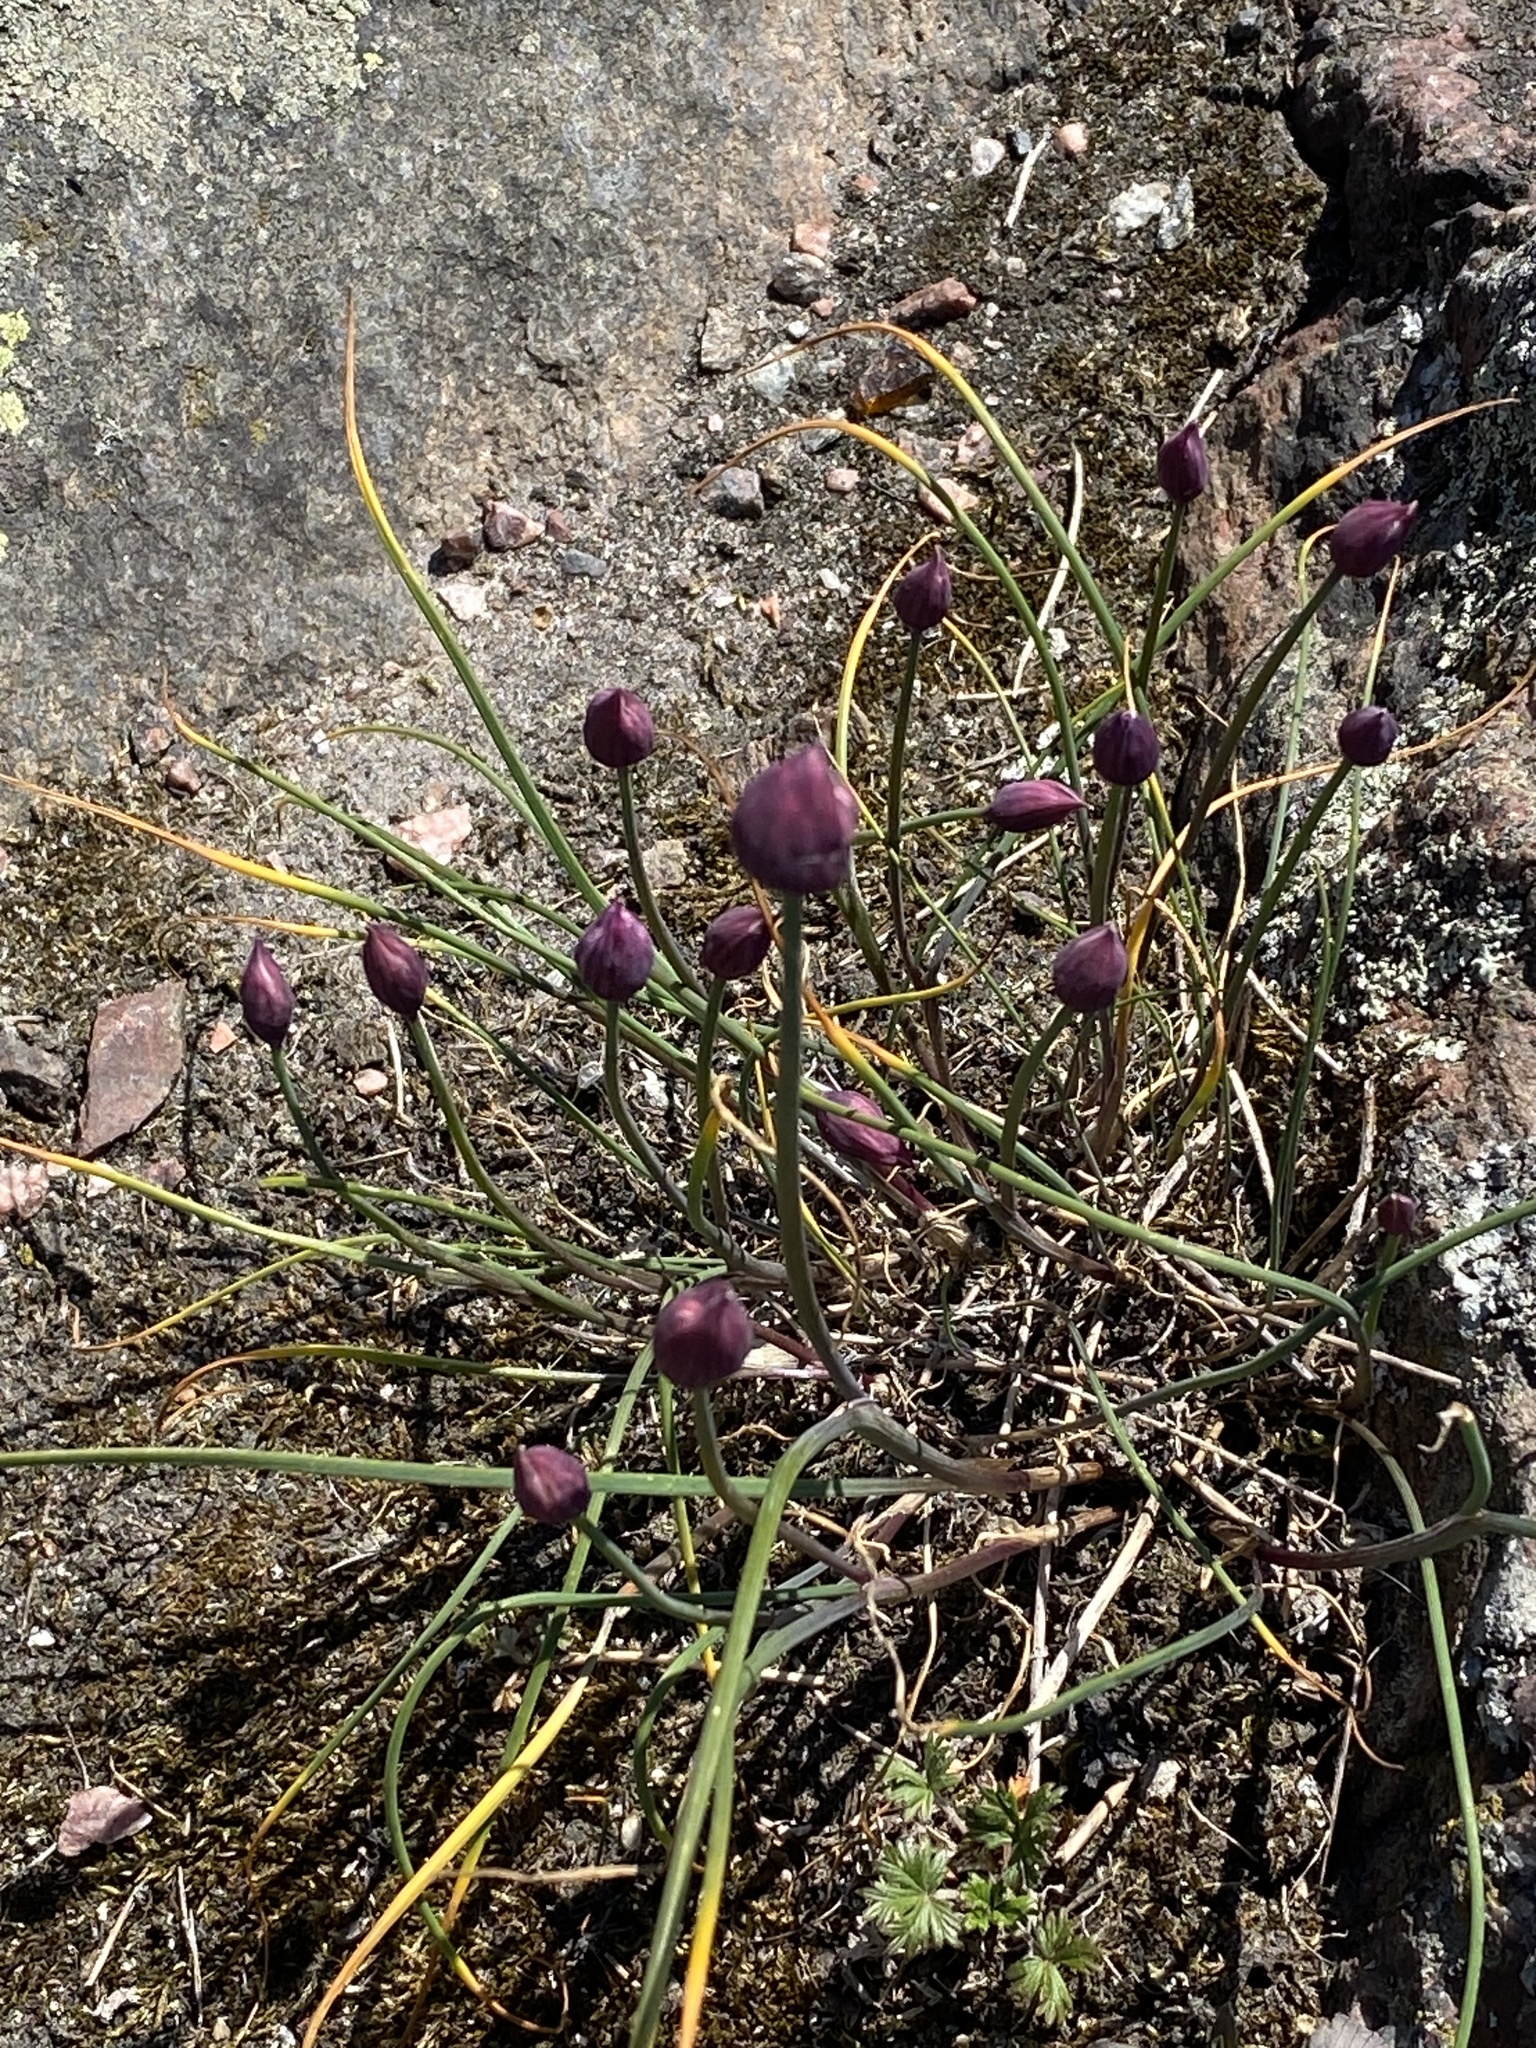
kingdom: Plantae
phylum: Tracheophyta
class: Liliopsida
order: Asparagales
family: Amaryllidaceae
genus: Allium
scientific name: Allium schoenoprasum
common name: Chives
